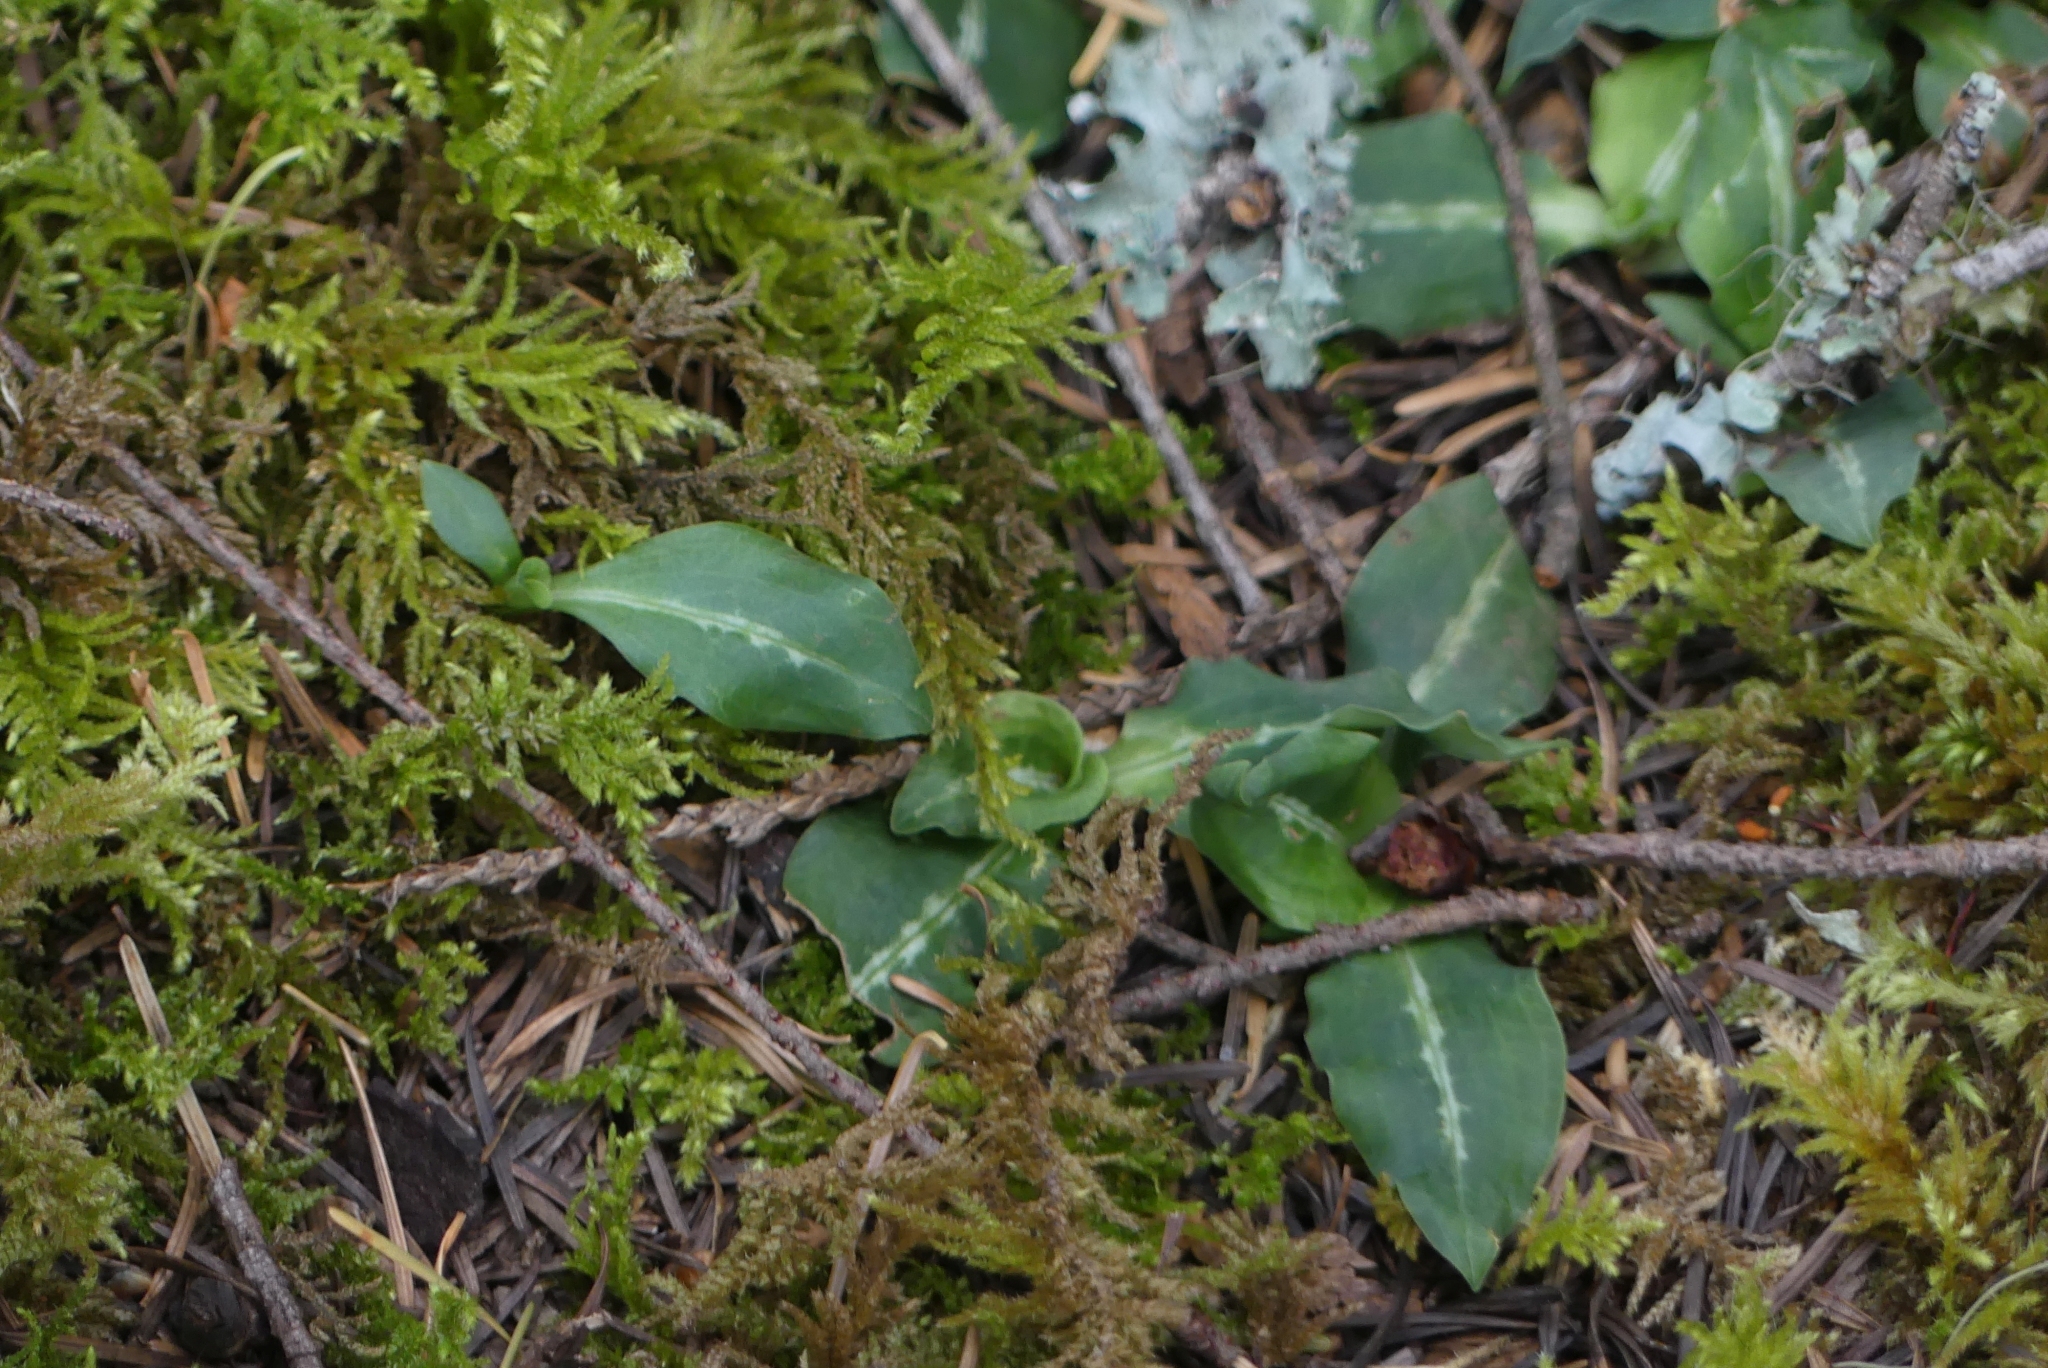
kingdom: Plantae
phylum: Tracheophyta
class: Liliopsida
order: Asparagales
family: Orchidaceae
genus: Goodyera
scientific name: Goodyera oblongifolia
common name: Giant rattlesnake-plantain
